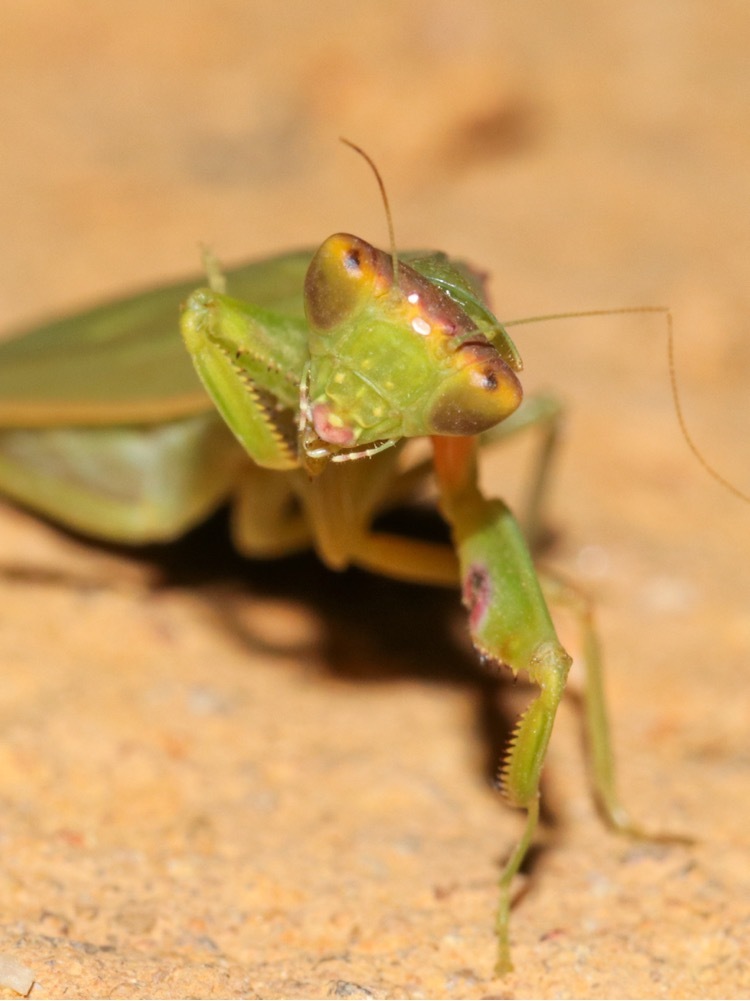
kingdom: Animalia
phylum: Arthropoda
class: Insecta
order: Mantodea
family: Mantidae
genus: Orthodera
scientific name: Orthodera ministralis
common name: Mantis
